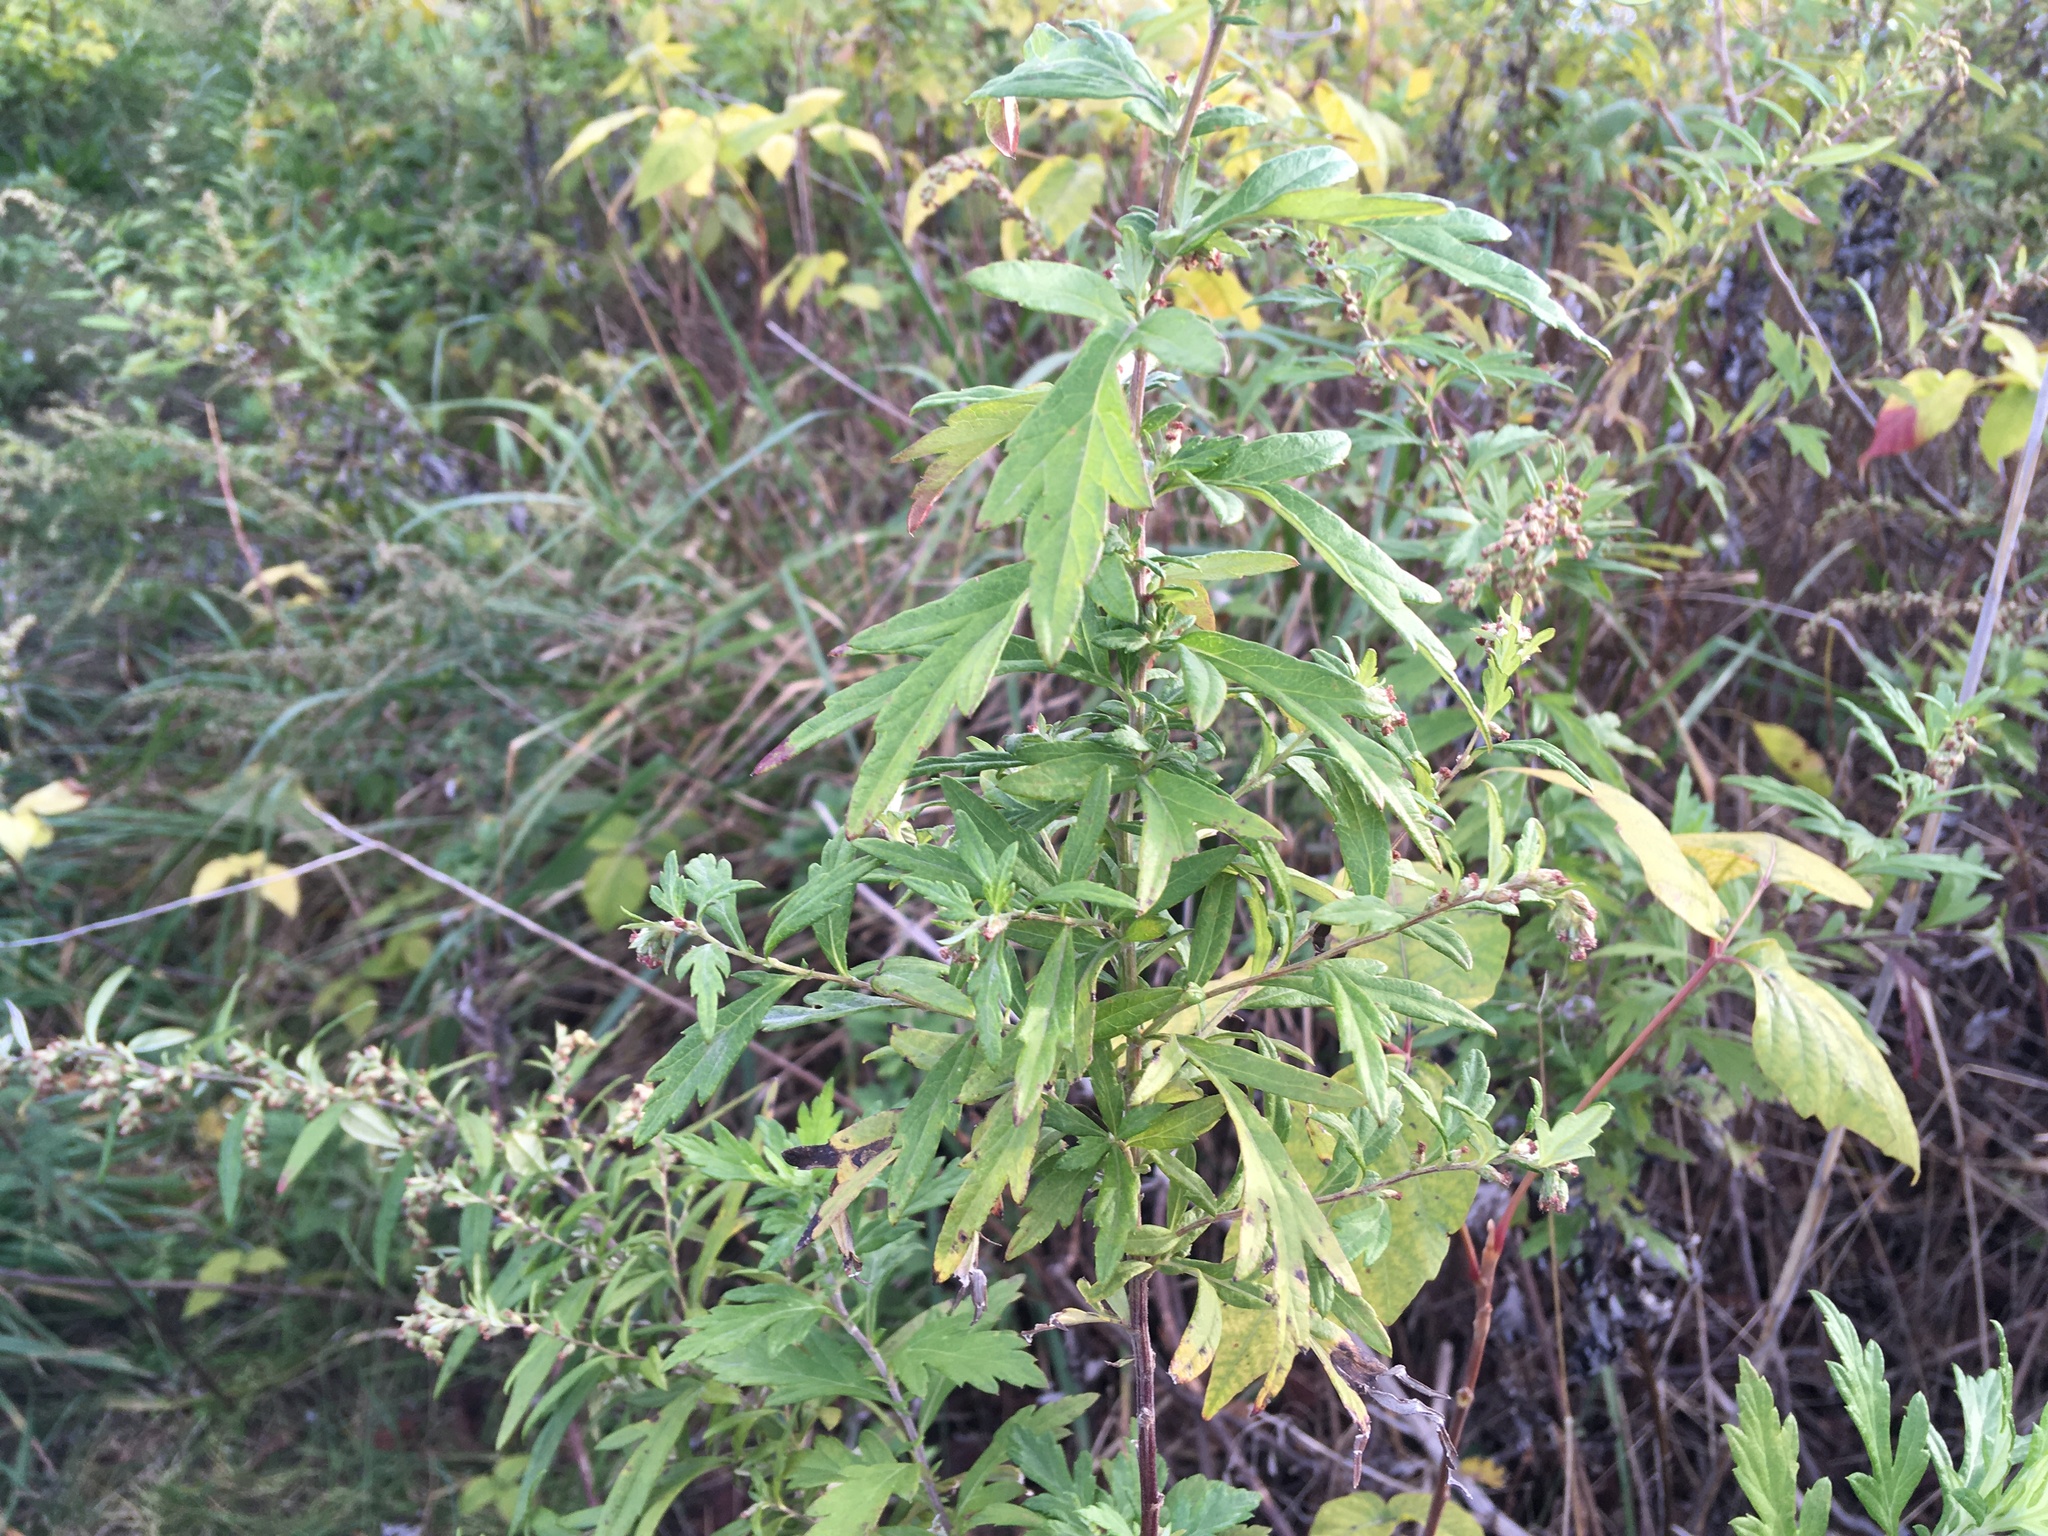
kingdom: Plantae
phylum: Tracheophyta
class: Magnoliopsida
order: Asterales
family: Asteraceae
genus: Artemisia
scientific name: Artemisia vulgaris
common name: Mugwort
